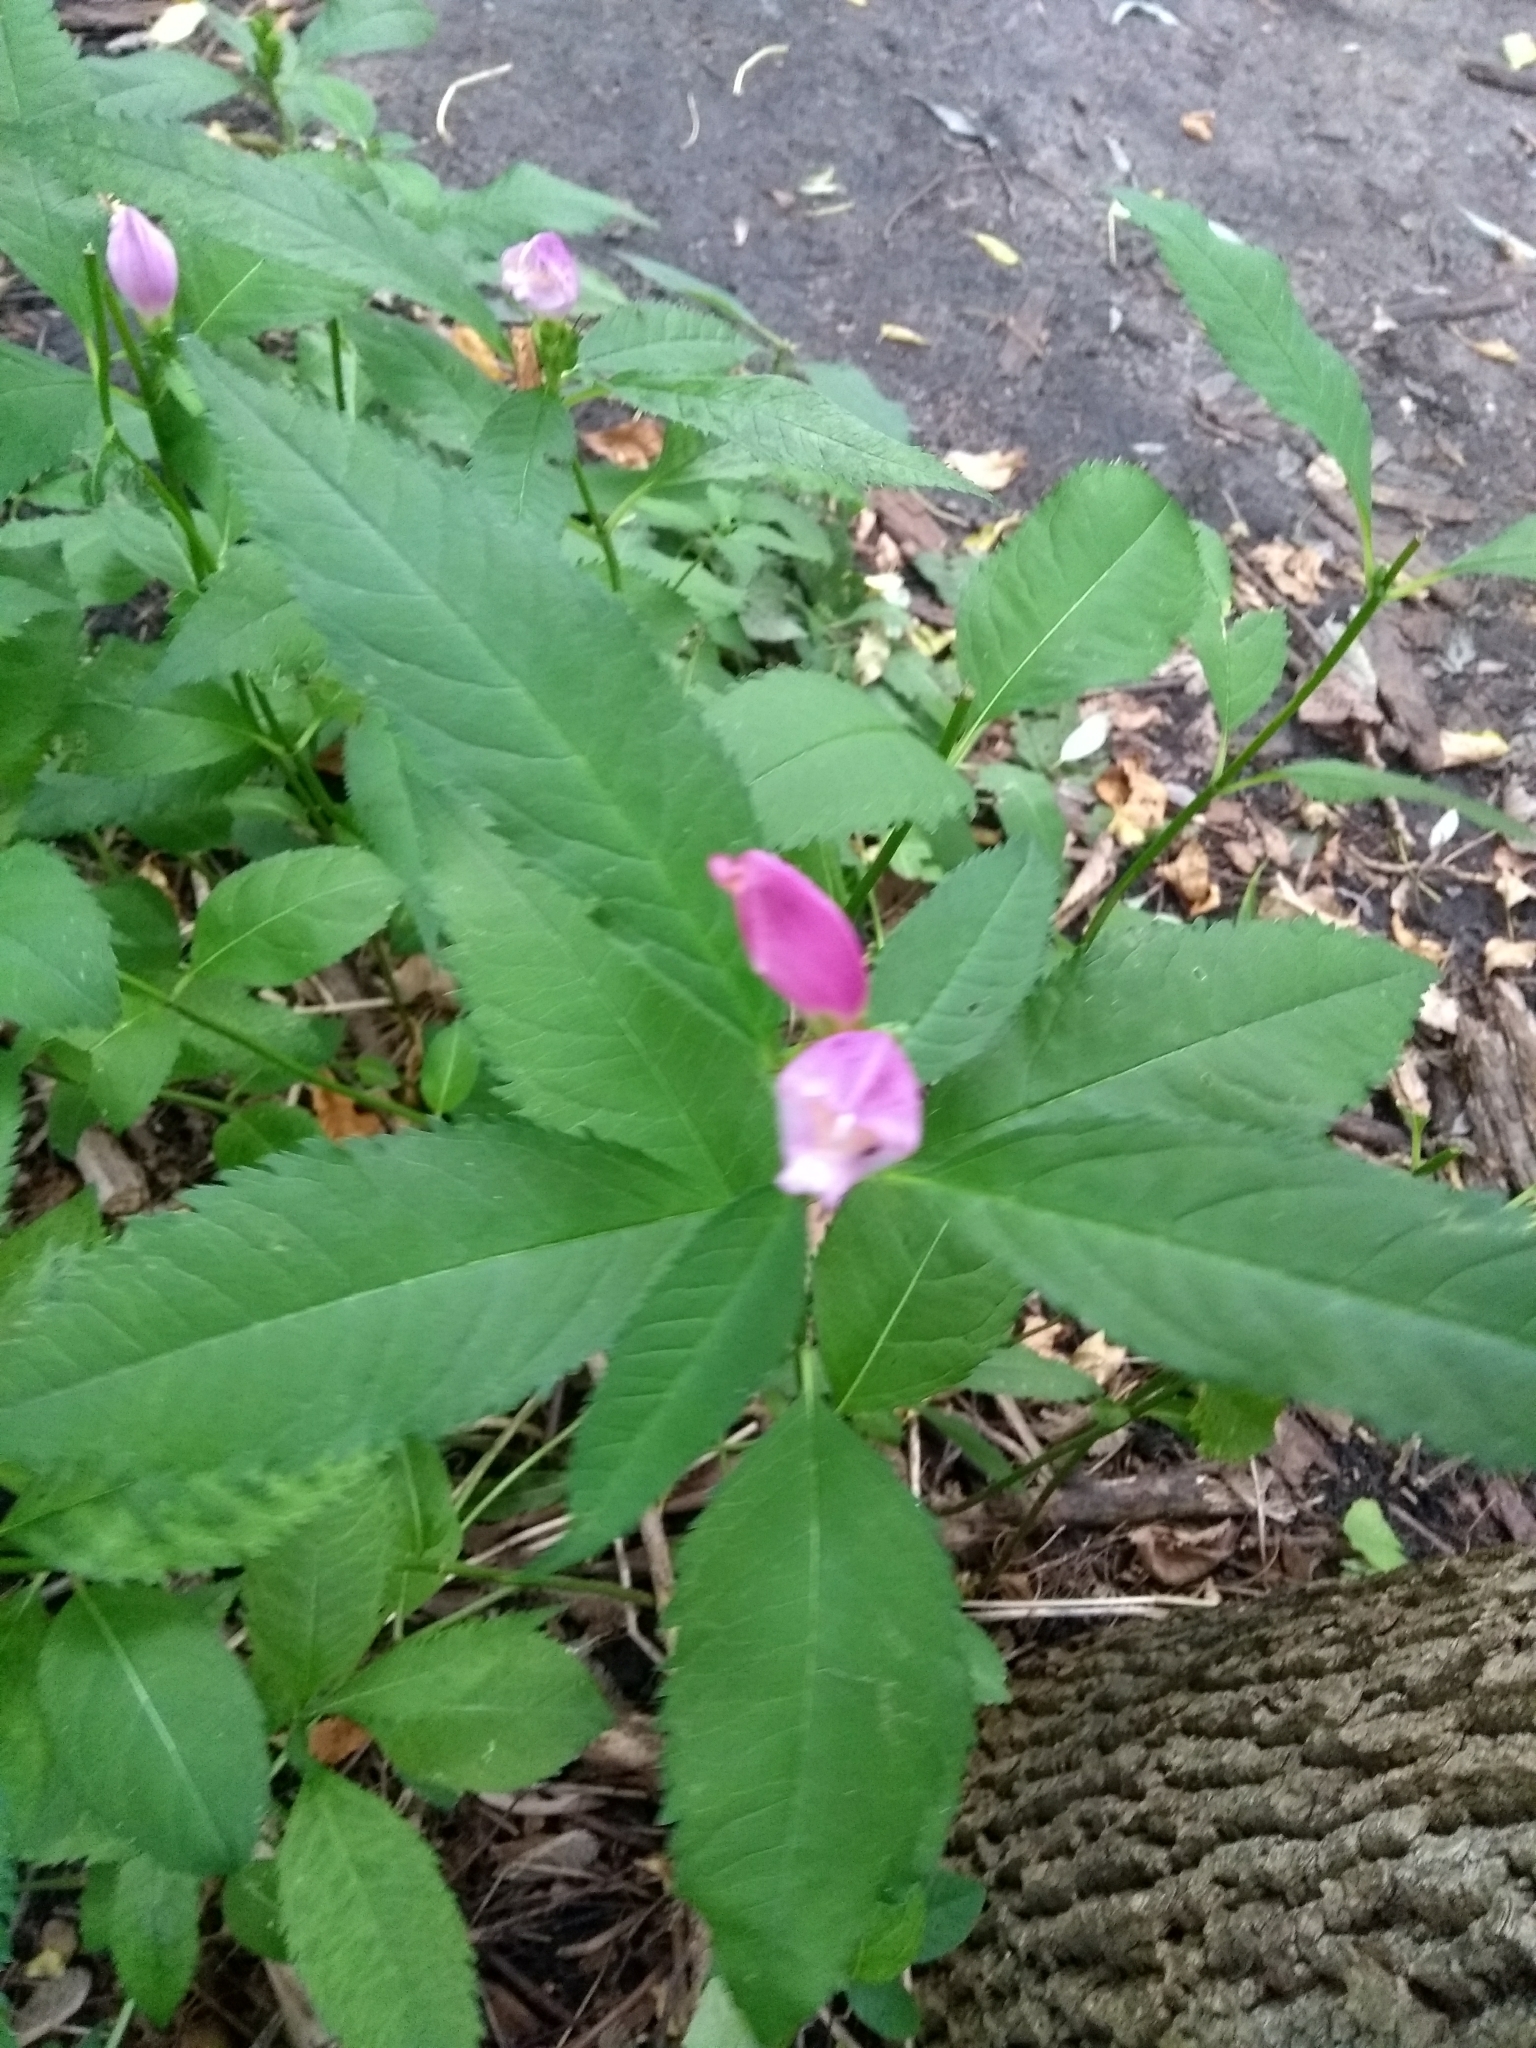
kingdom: Plantae
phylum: Tracheophyta
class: Magnoliopsida
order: Lamiales
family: Plantaginaceae
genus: Chelone
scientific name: Chelone lyonii
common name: Pink turtlehead
